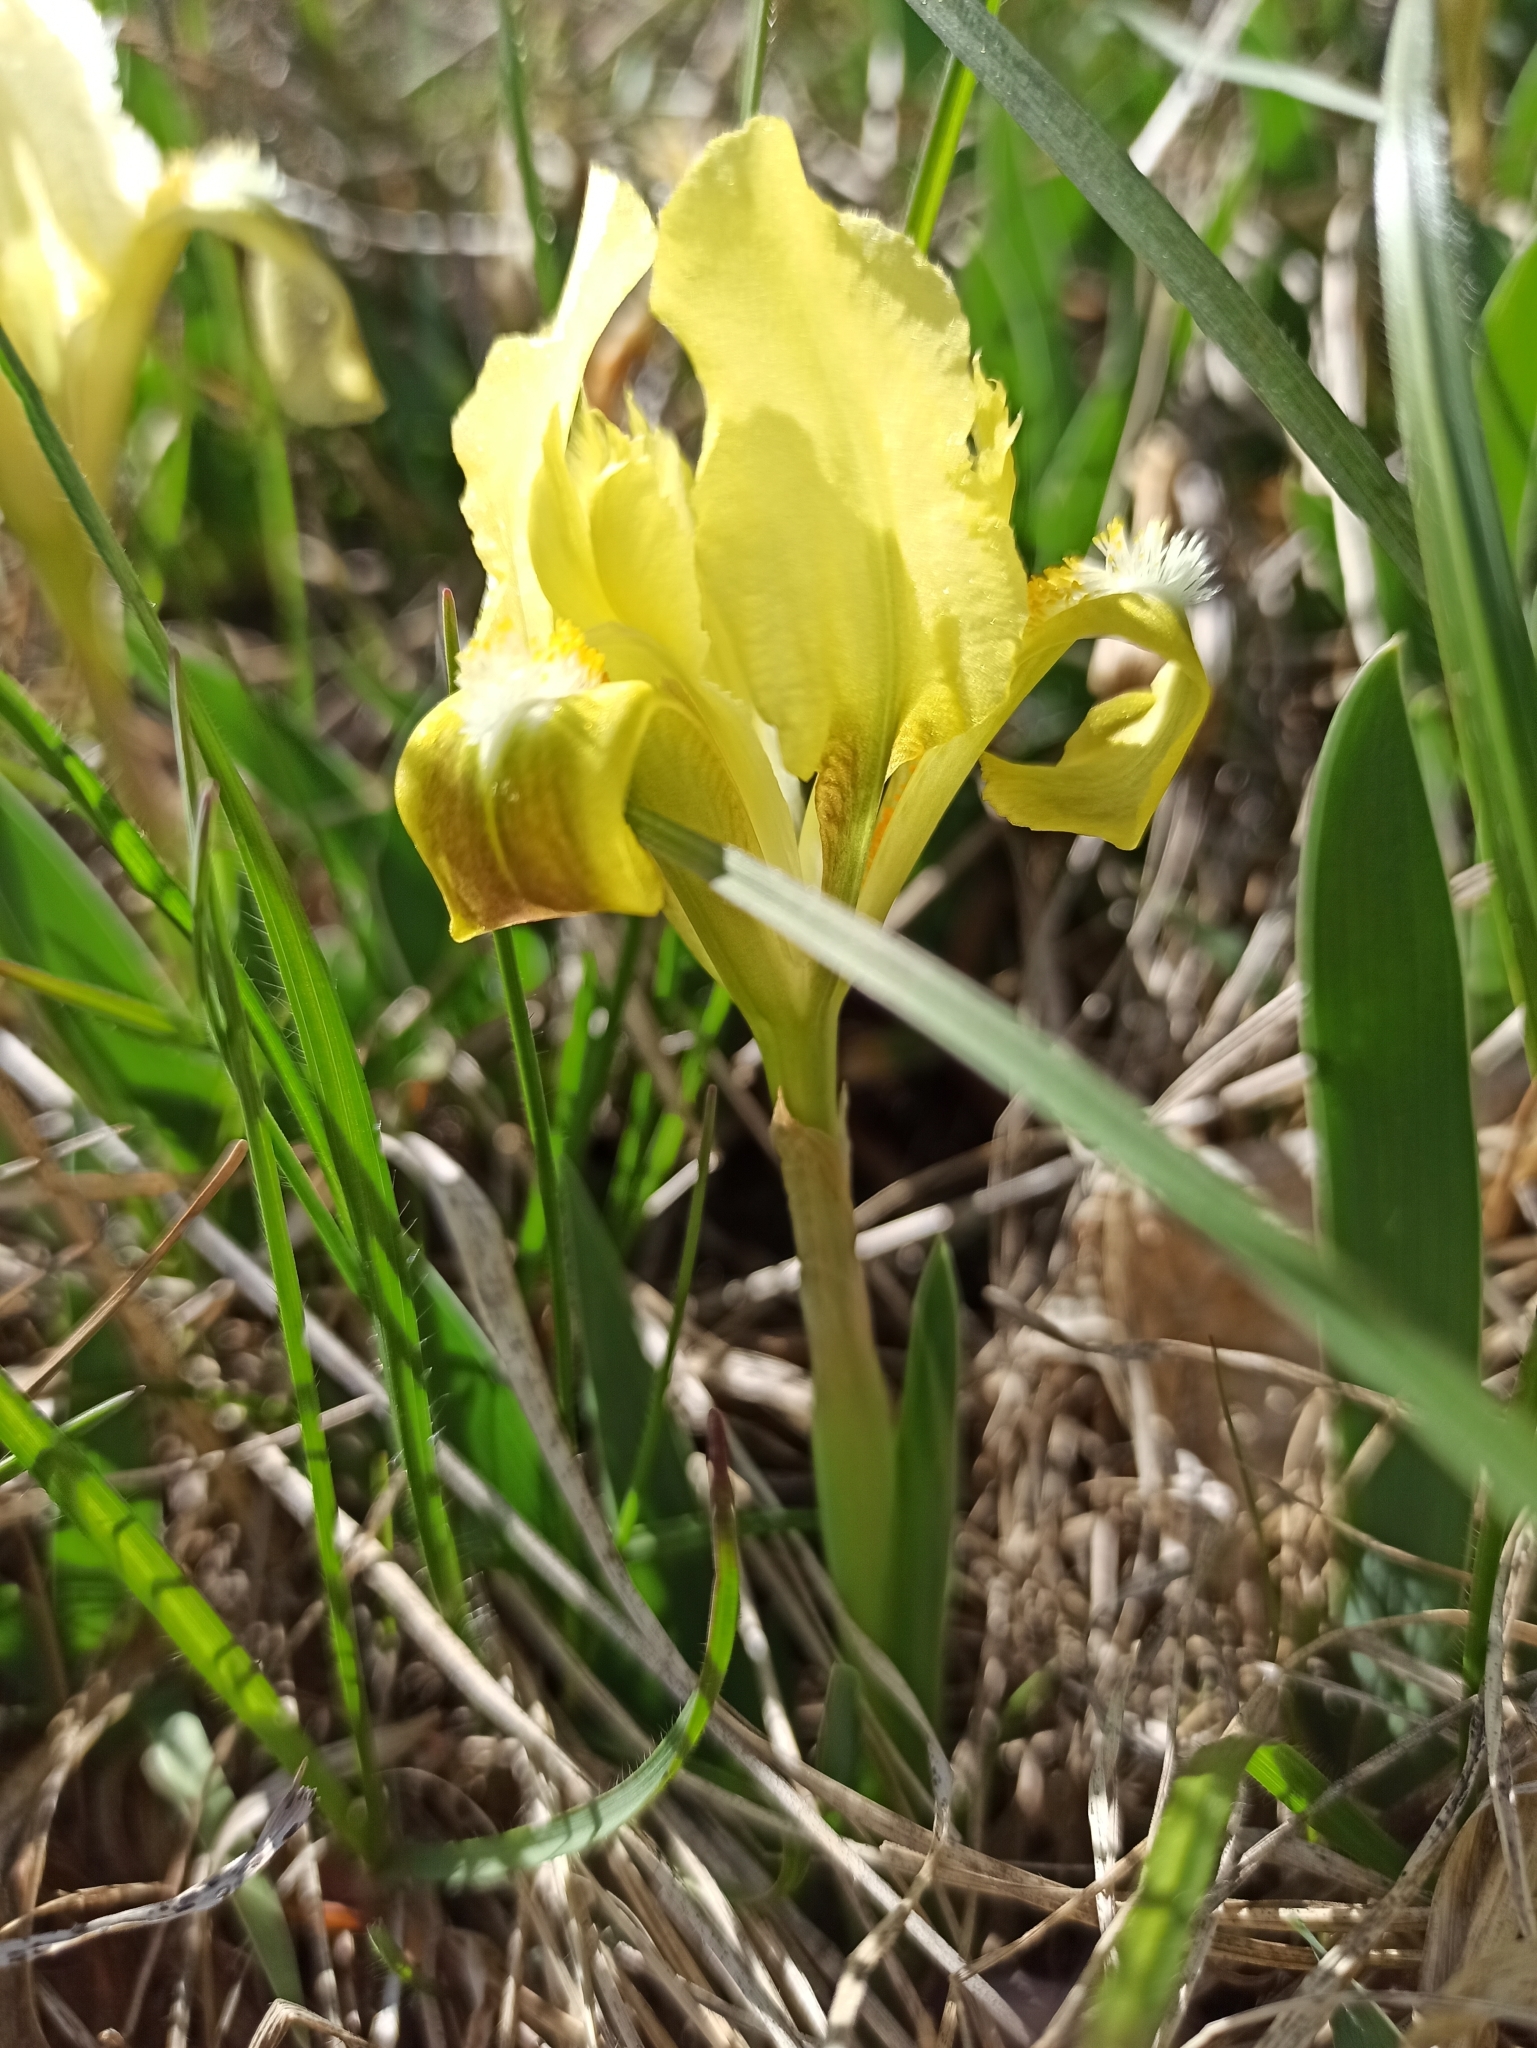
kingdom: Plantae
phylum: Tracheophyta
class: Liliopsida
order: Asparagales
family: Iridaceae
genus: Iris
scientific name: Iris pumila
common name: Dwarf iris
